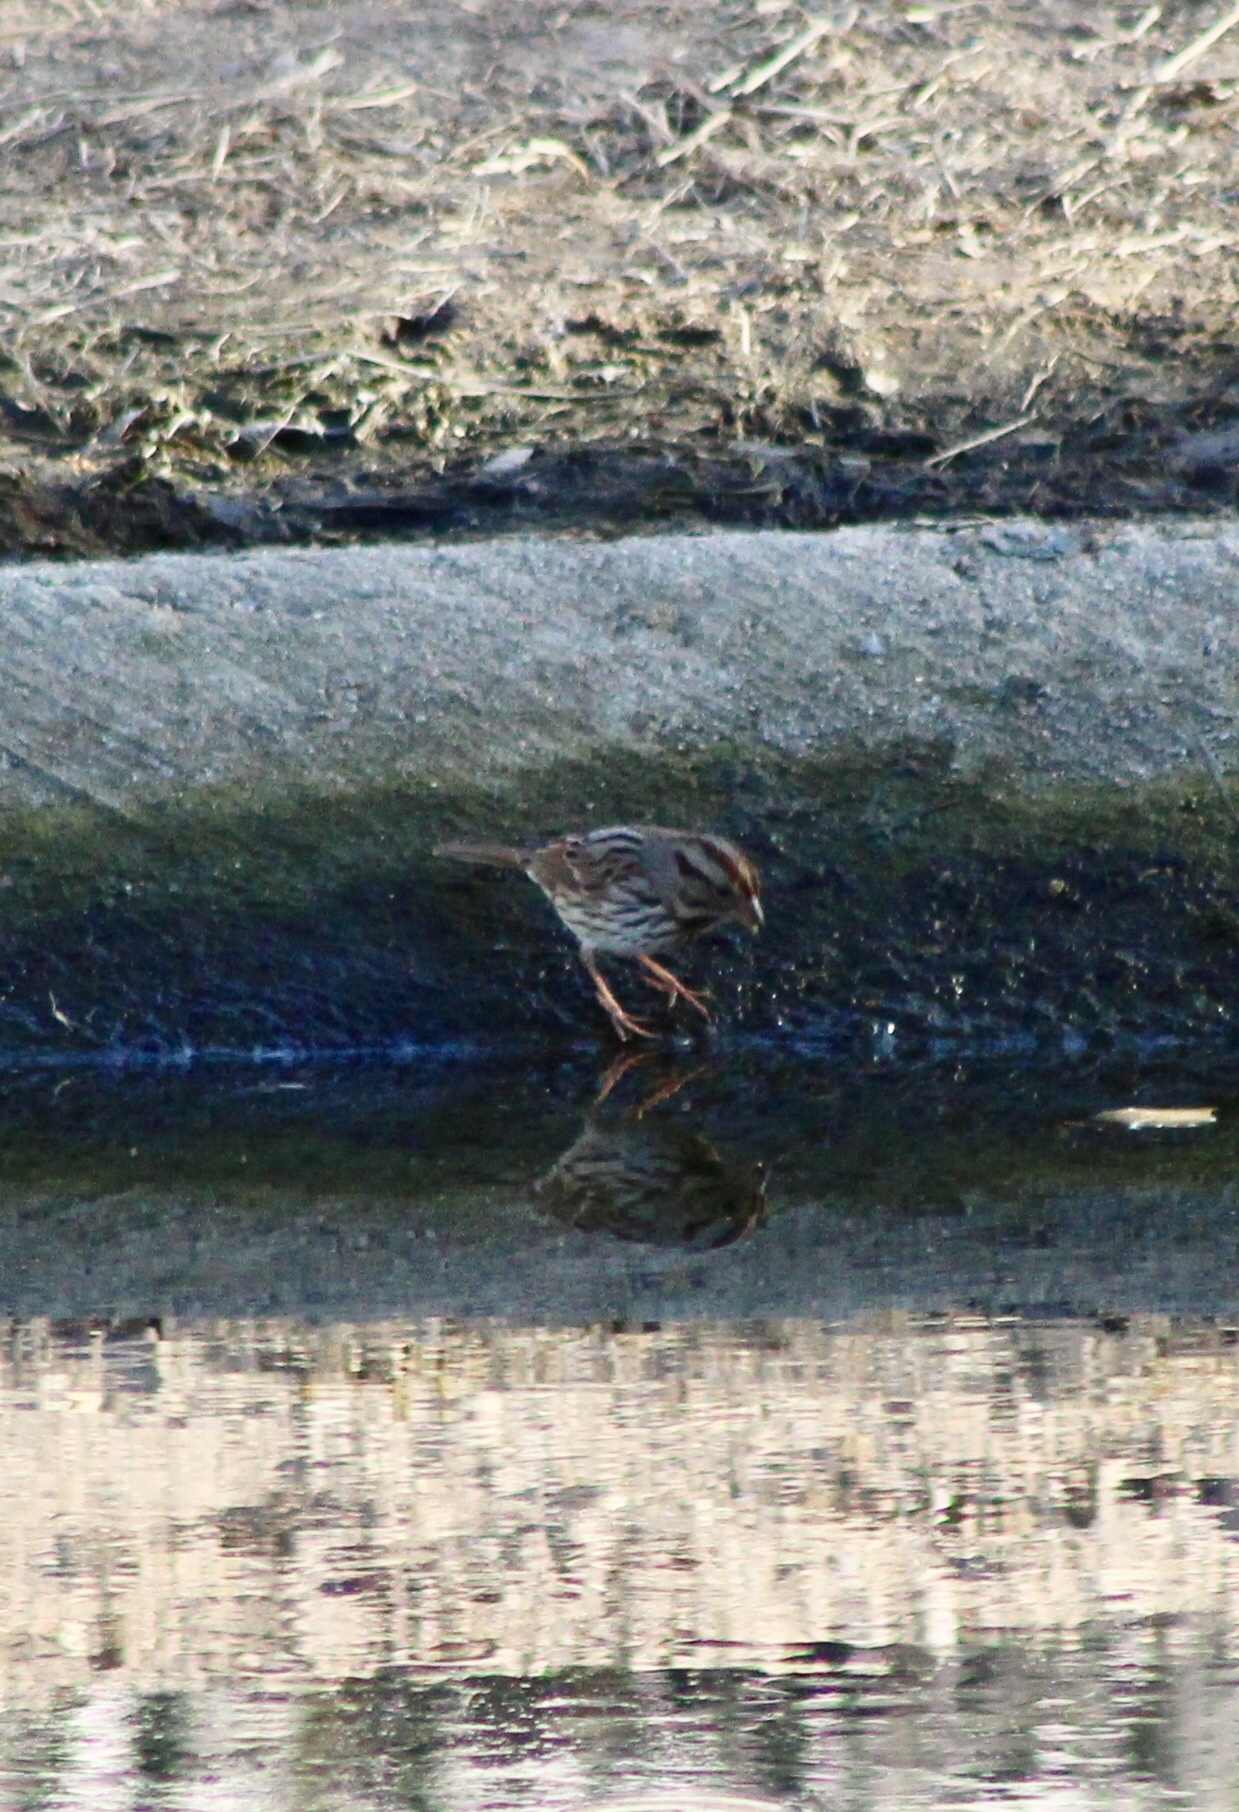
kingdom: Animalia
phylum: Chordata
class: Aves
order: Passeriformes
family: Passerellidae
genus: Melospiza
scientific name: Melospiza melodia
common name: Song sparrow
